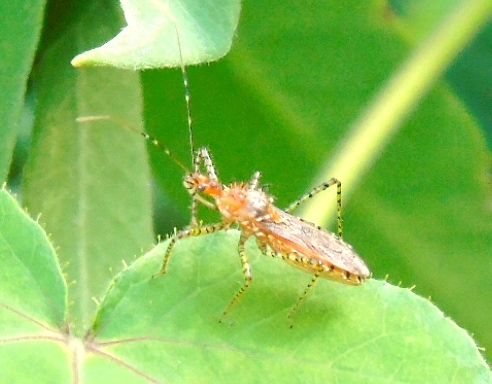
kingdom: Animalia
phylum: Arthropoda
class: Insecta
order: Hemiptera
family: Reduviidae
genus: Pselliopus
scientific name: Pselliopus
